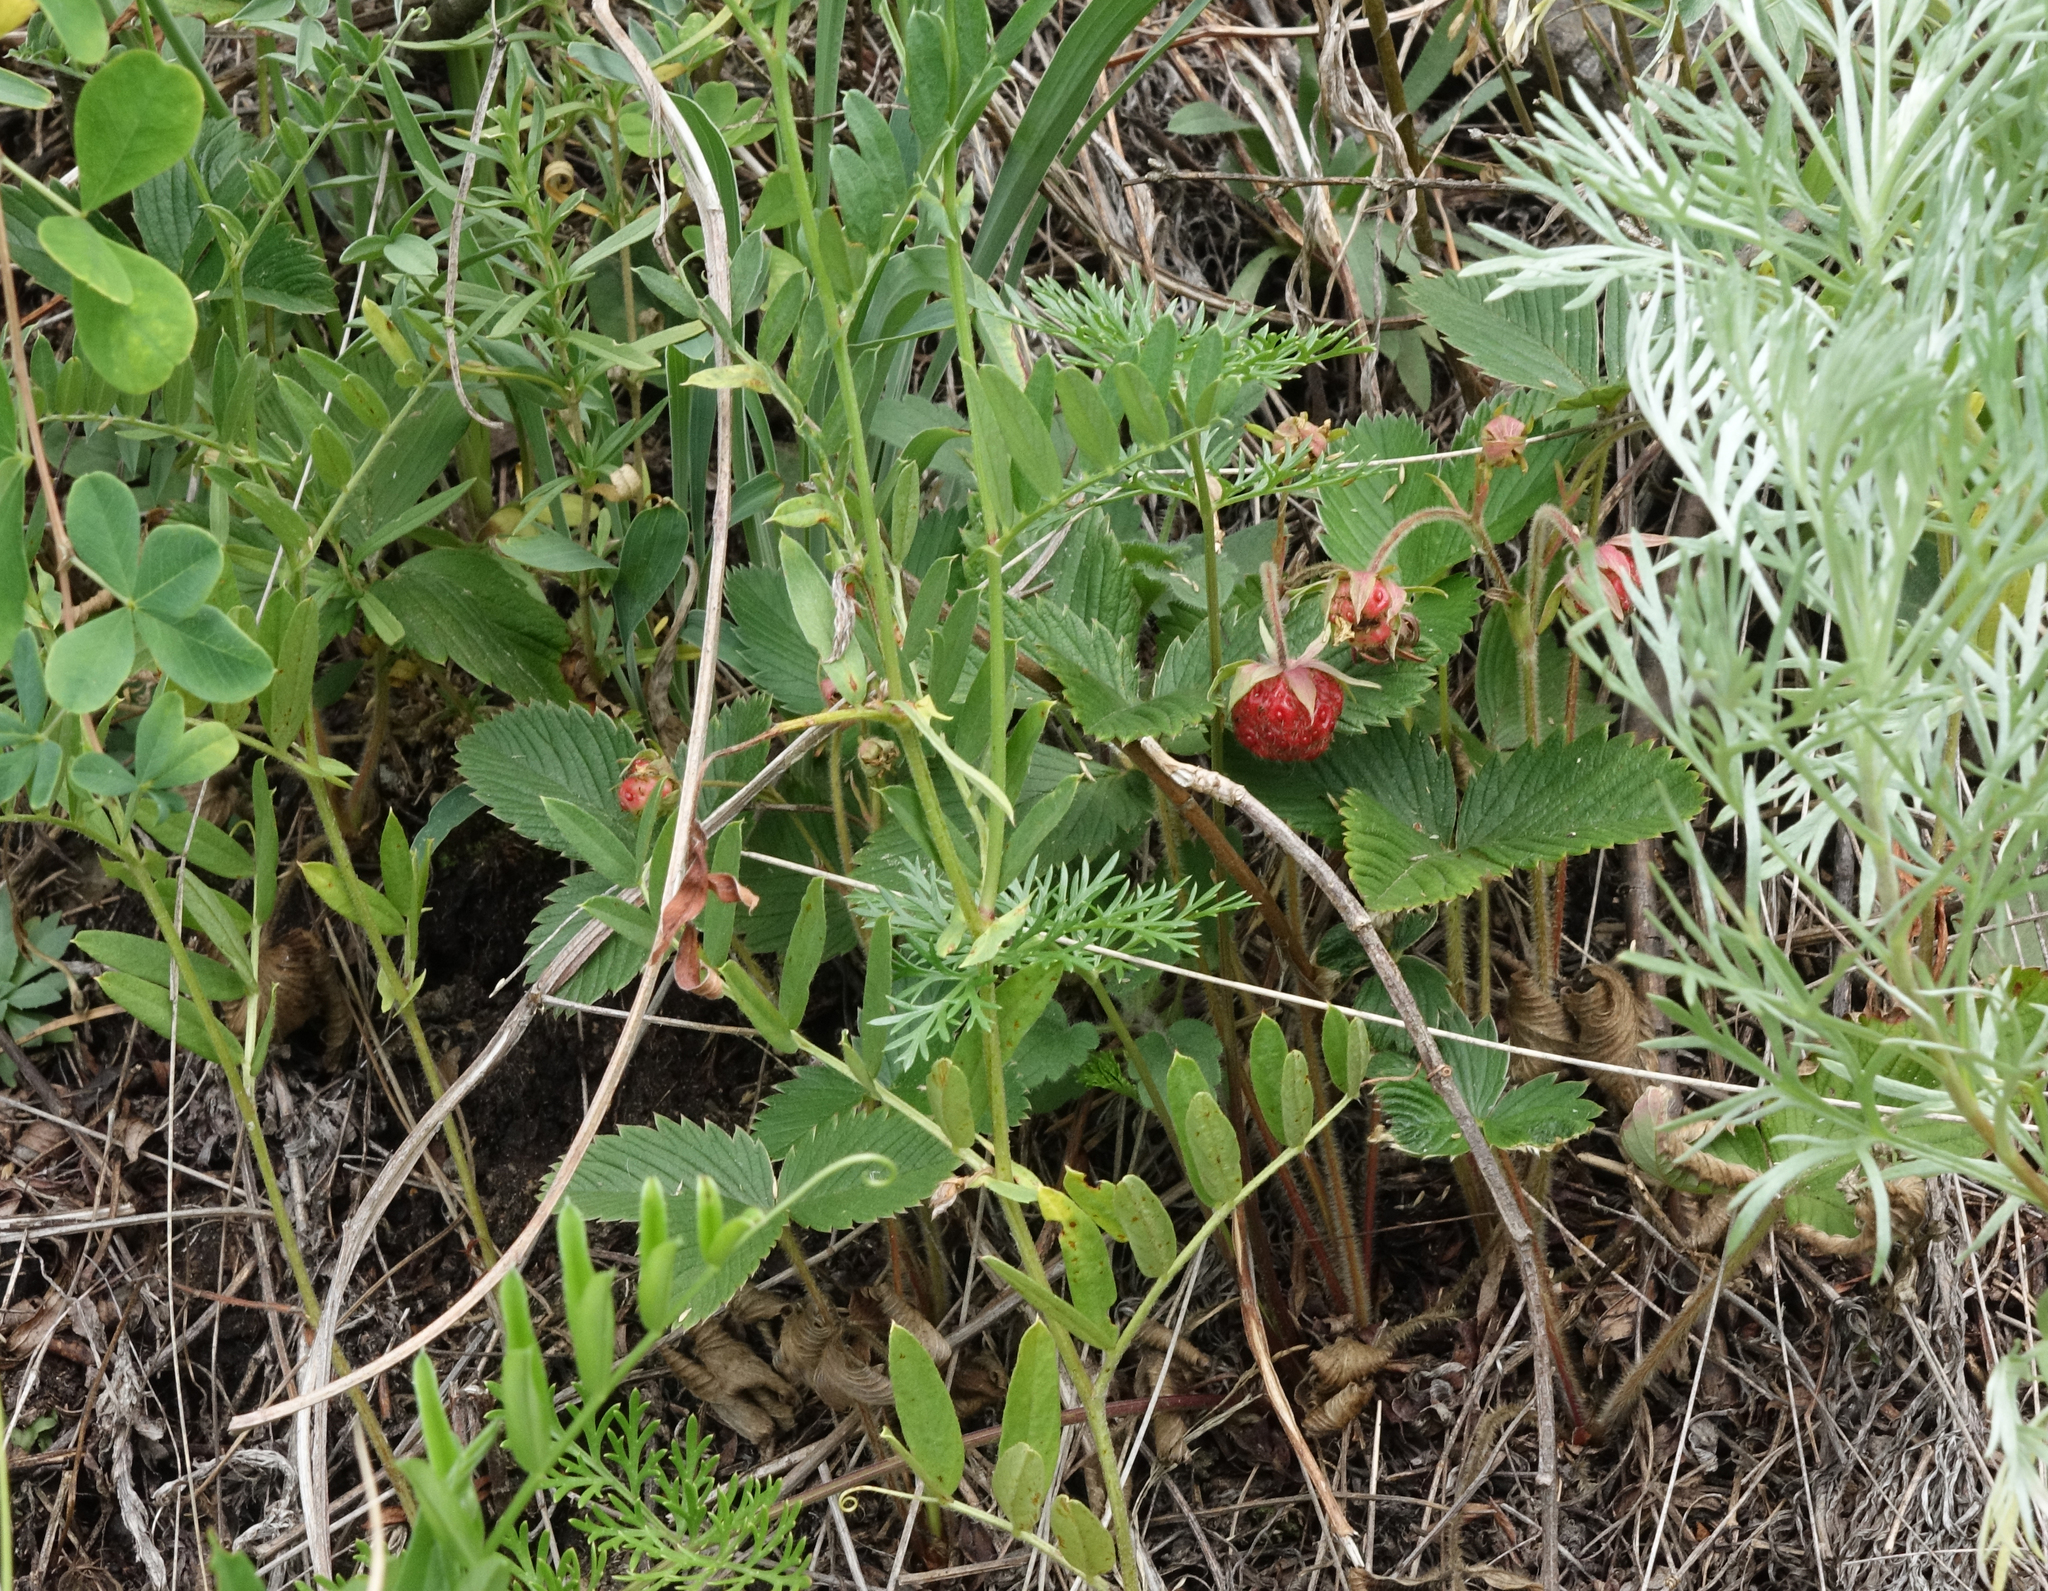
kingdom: Plantae
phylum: Tracheophyta
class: Magnoliopsida
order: Rosales
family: Rosaceae
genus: Fragaria
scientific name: Fragaria viridis
